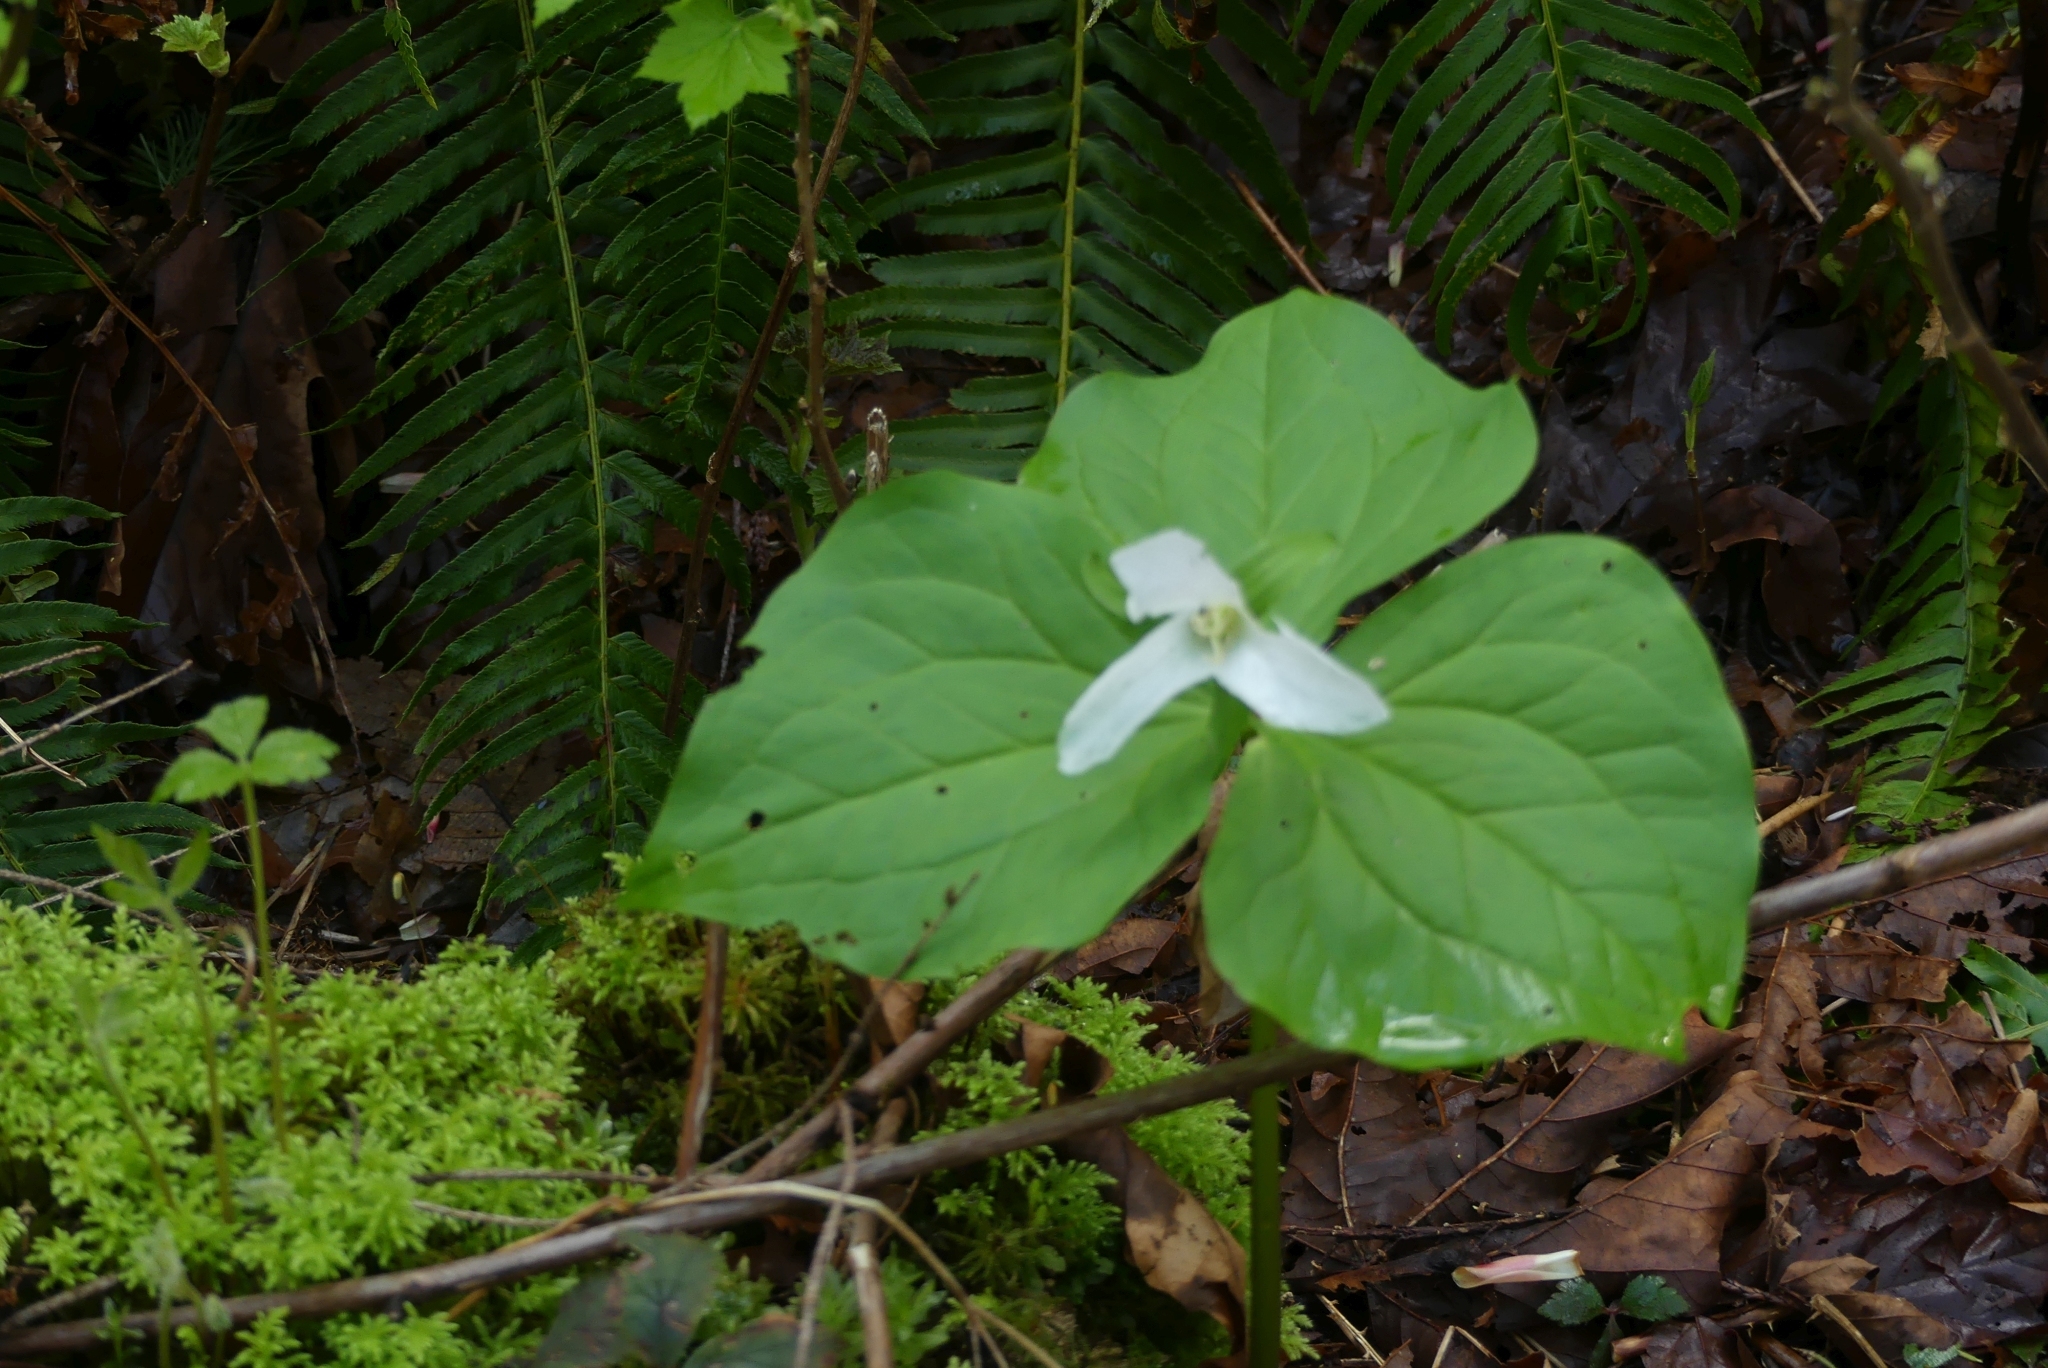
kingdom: Plantae
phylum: Tracheophyta
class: Liliopsida
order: Liliales
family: Melanthiaceae
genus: Trillium
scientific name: Trillium ovatum
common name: Pacific trillium
